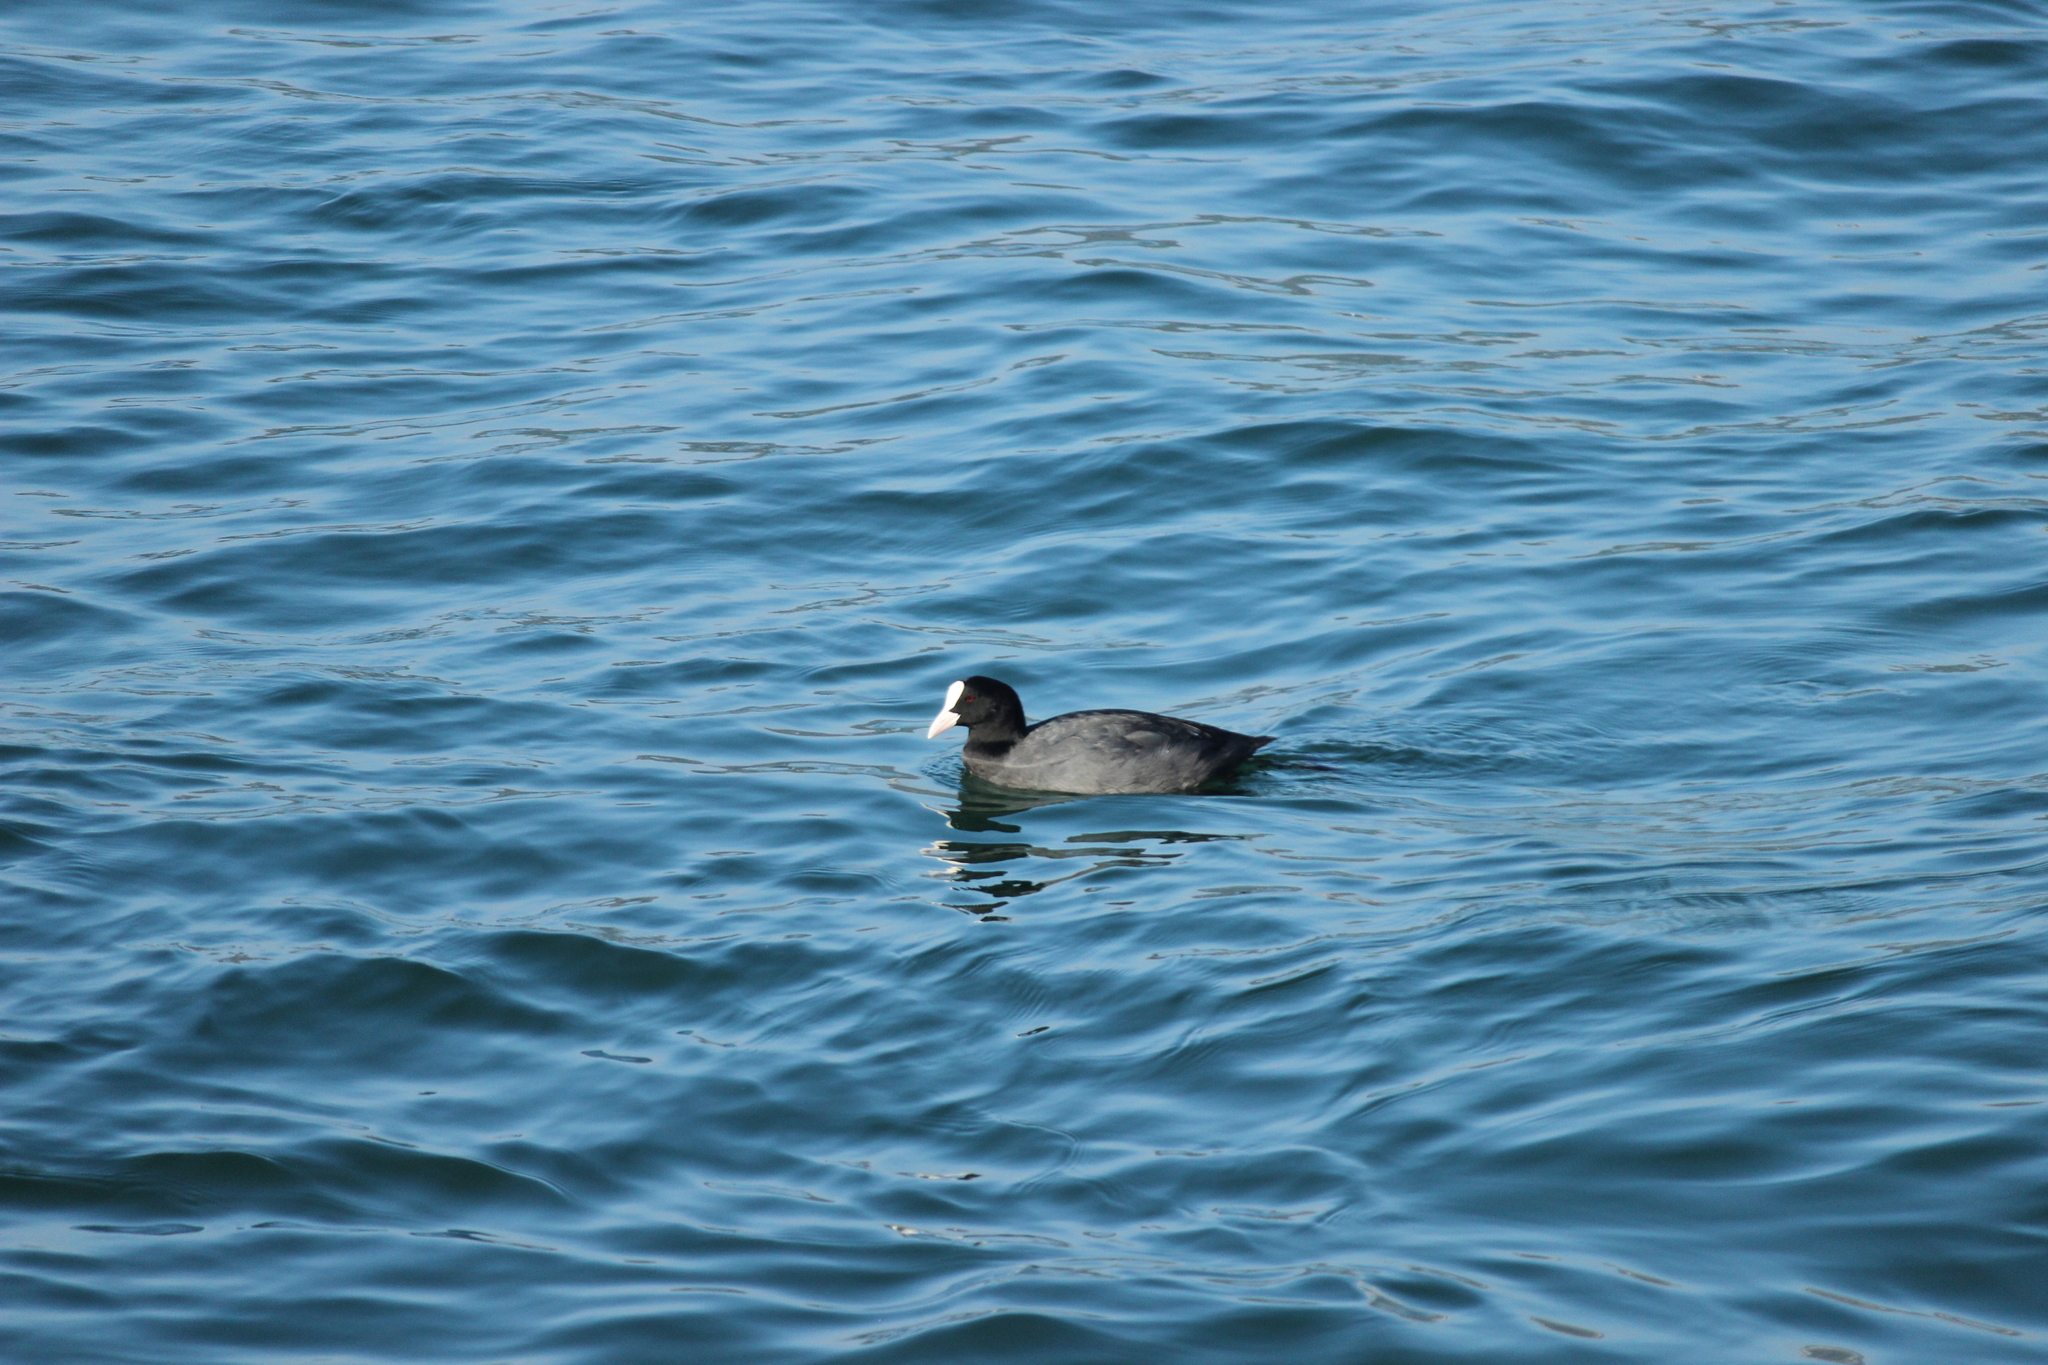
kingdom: Animalia
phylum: Chordata
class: Aves
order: Gruiformes
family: Rallidae
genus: Fulica
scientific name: Fulica atra
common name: Eurasian coot
